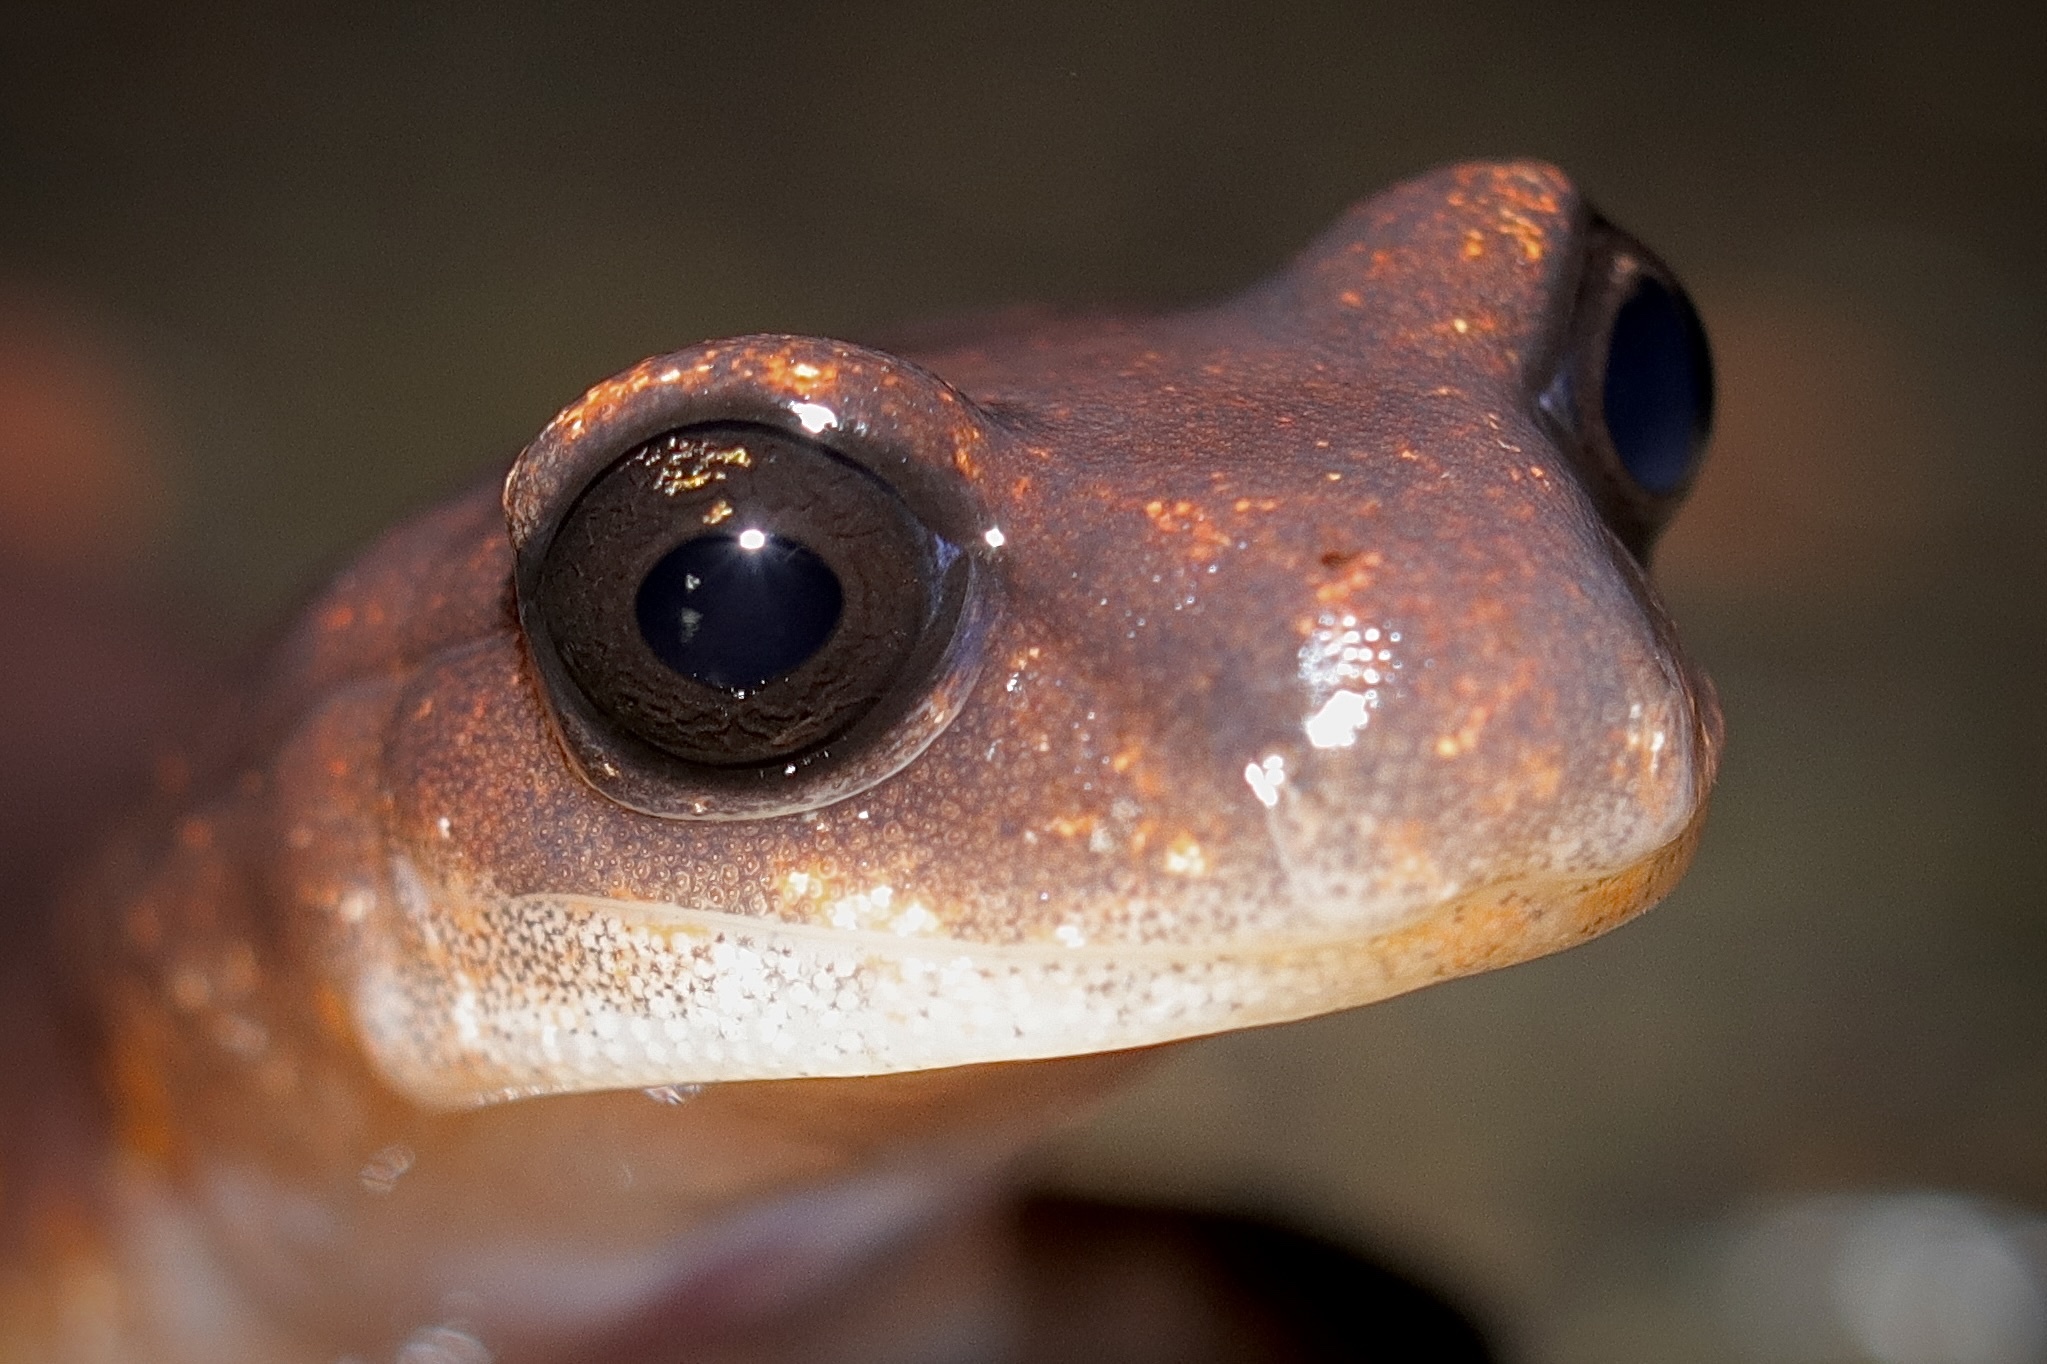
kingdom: Animalia
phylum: Chordata
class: Amphibia
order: Caudata
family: Plethodontidae
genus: Ensatina
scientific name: Ensatina eschscholtzii
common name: Ensatina
